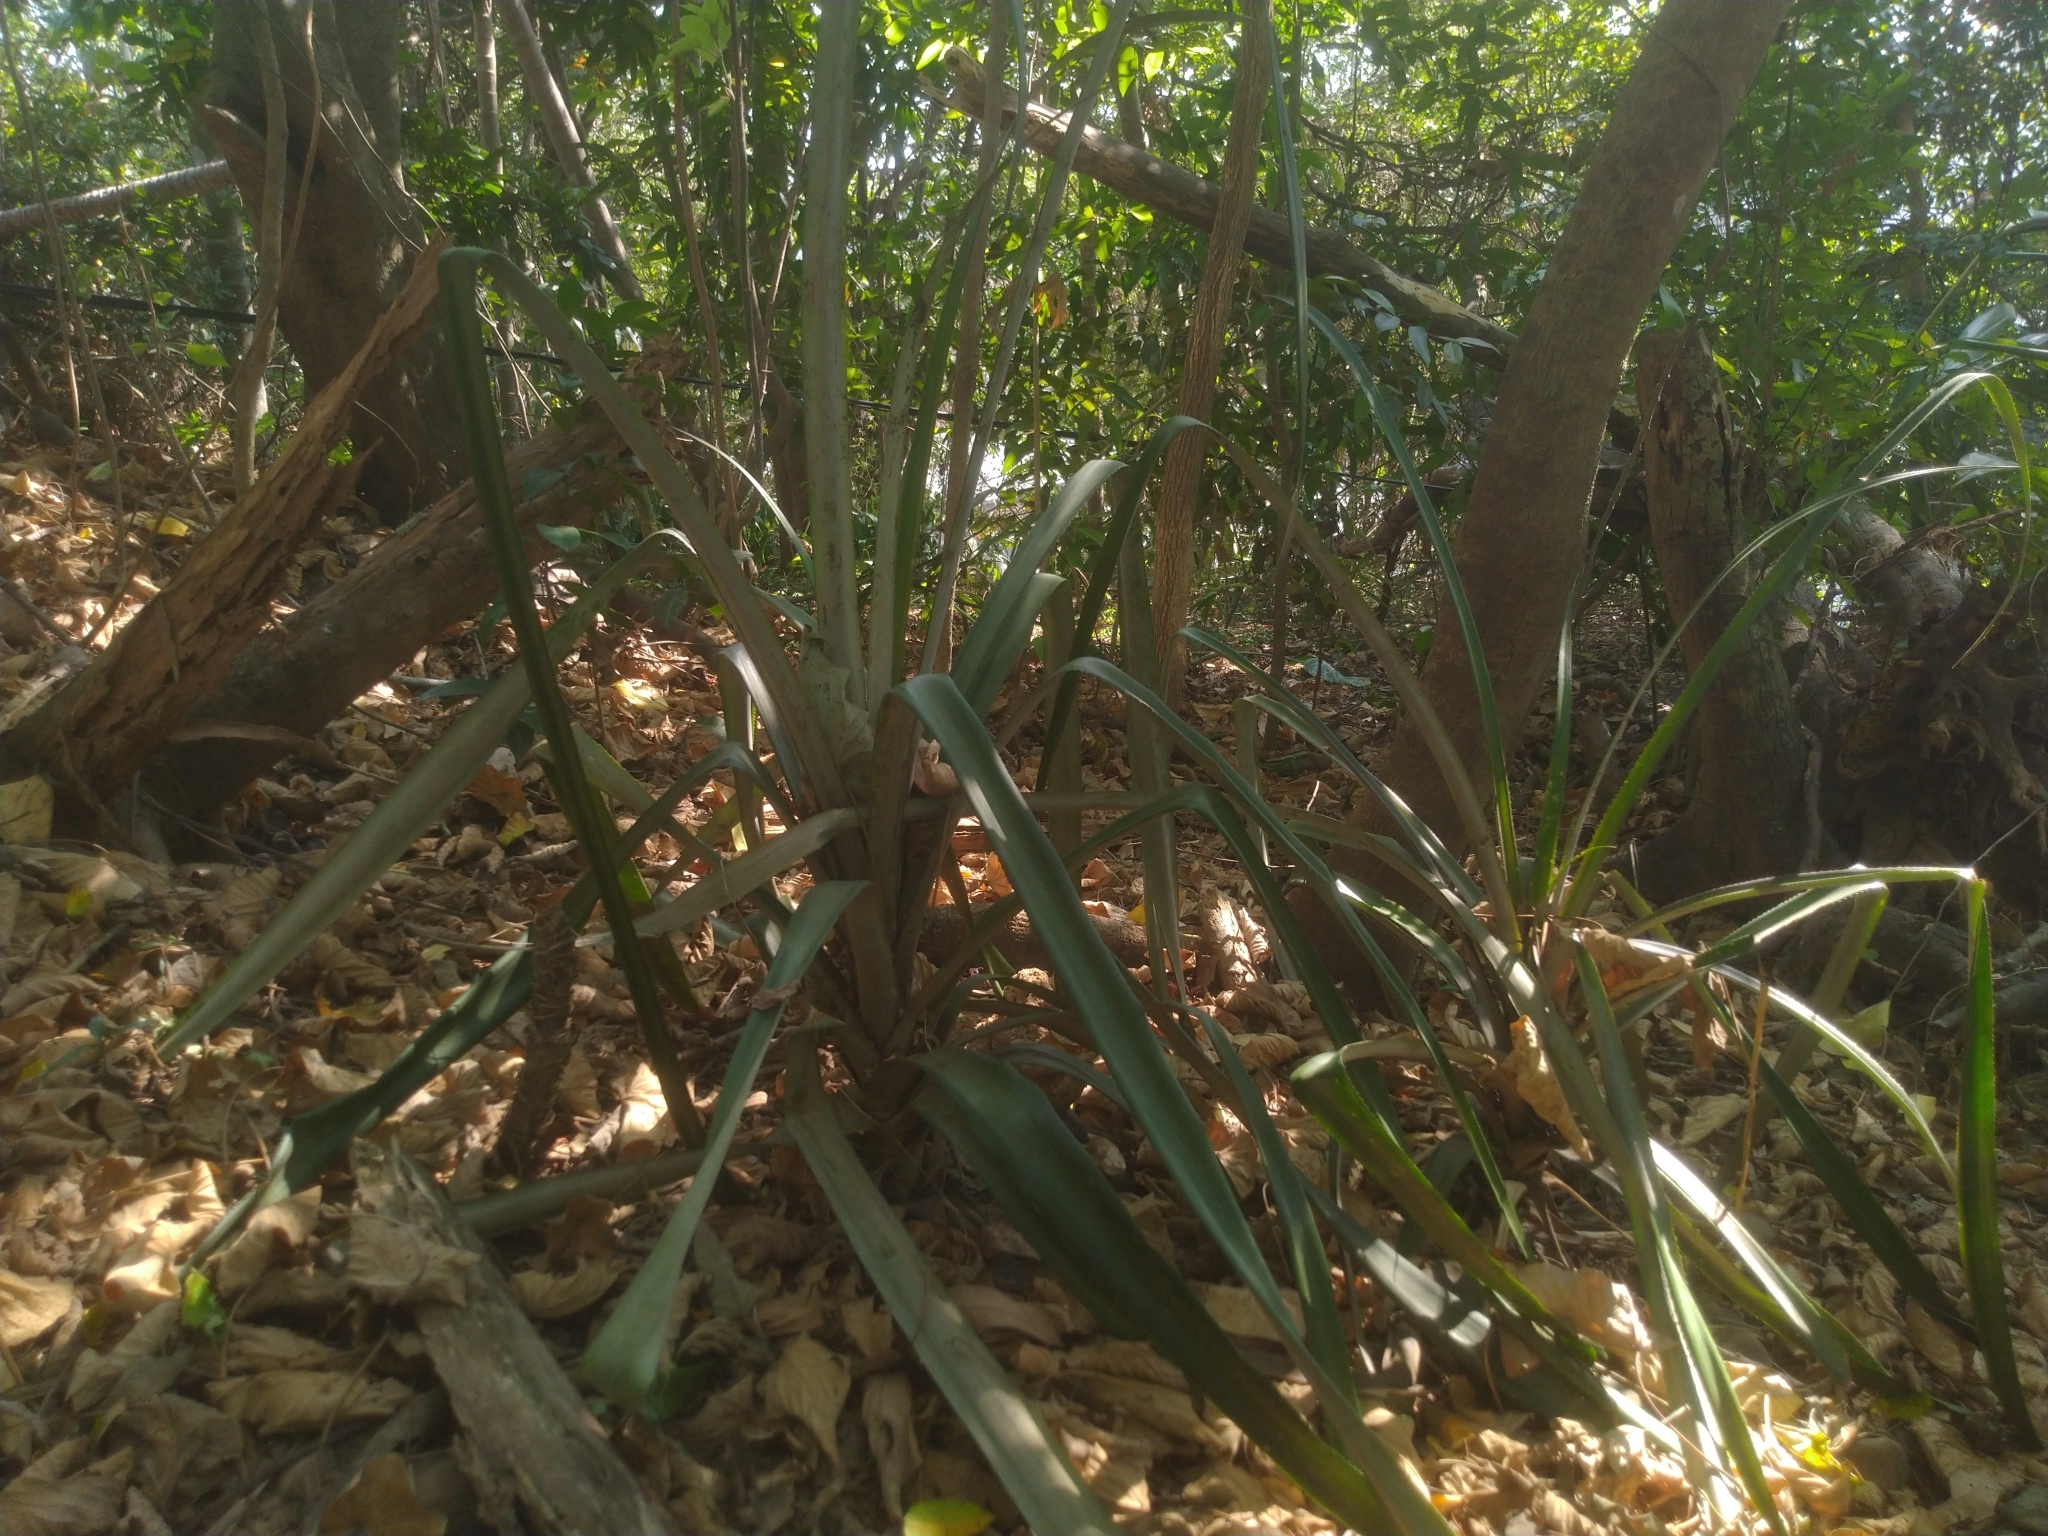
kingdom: Plantae
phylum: Tracheophyta
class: Liliopsida
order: Poales
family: Bromeliaceae
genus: Ananas
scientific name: Ananas comosus
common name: Pineapple
